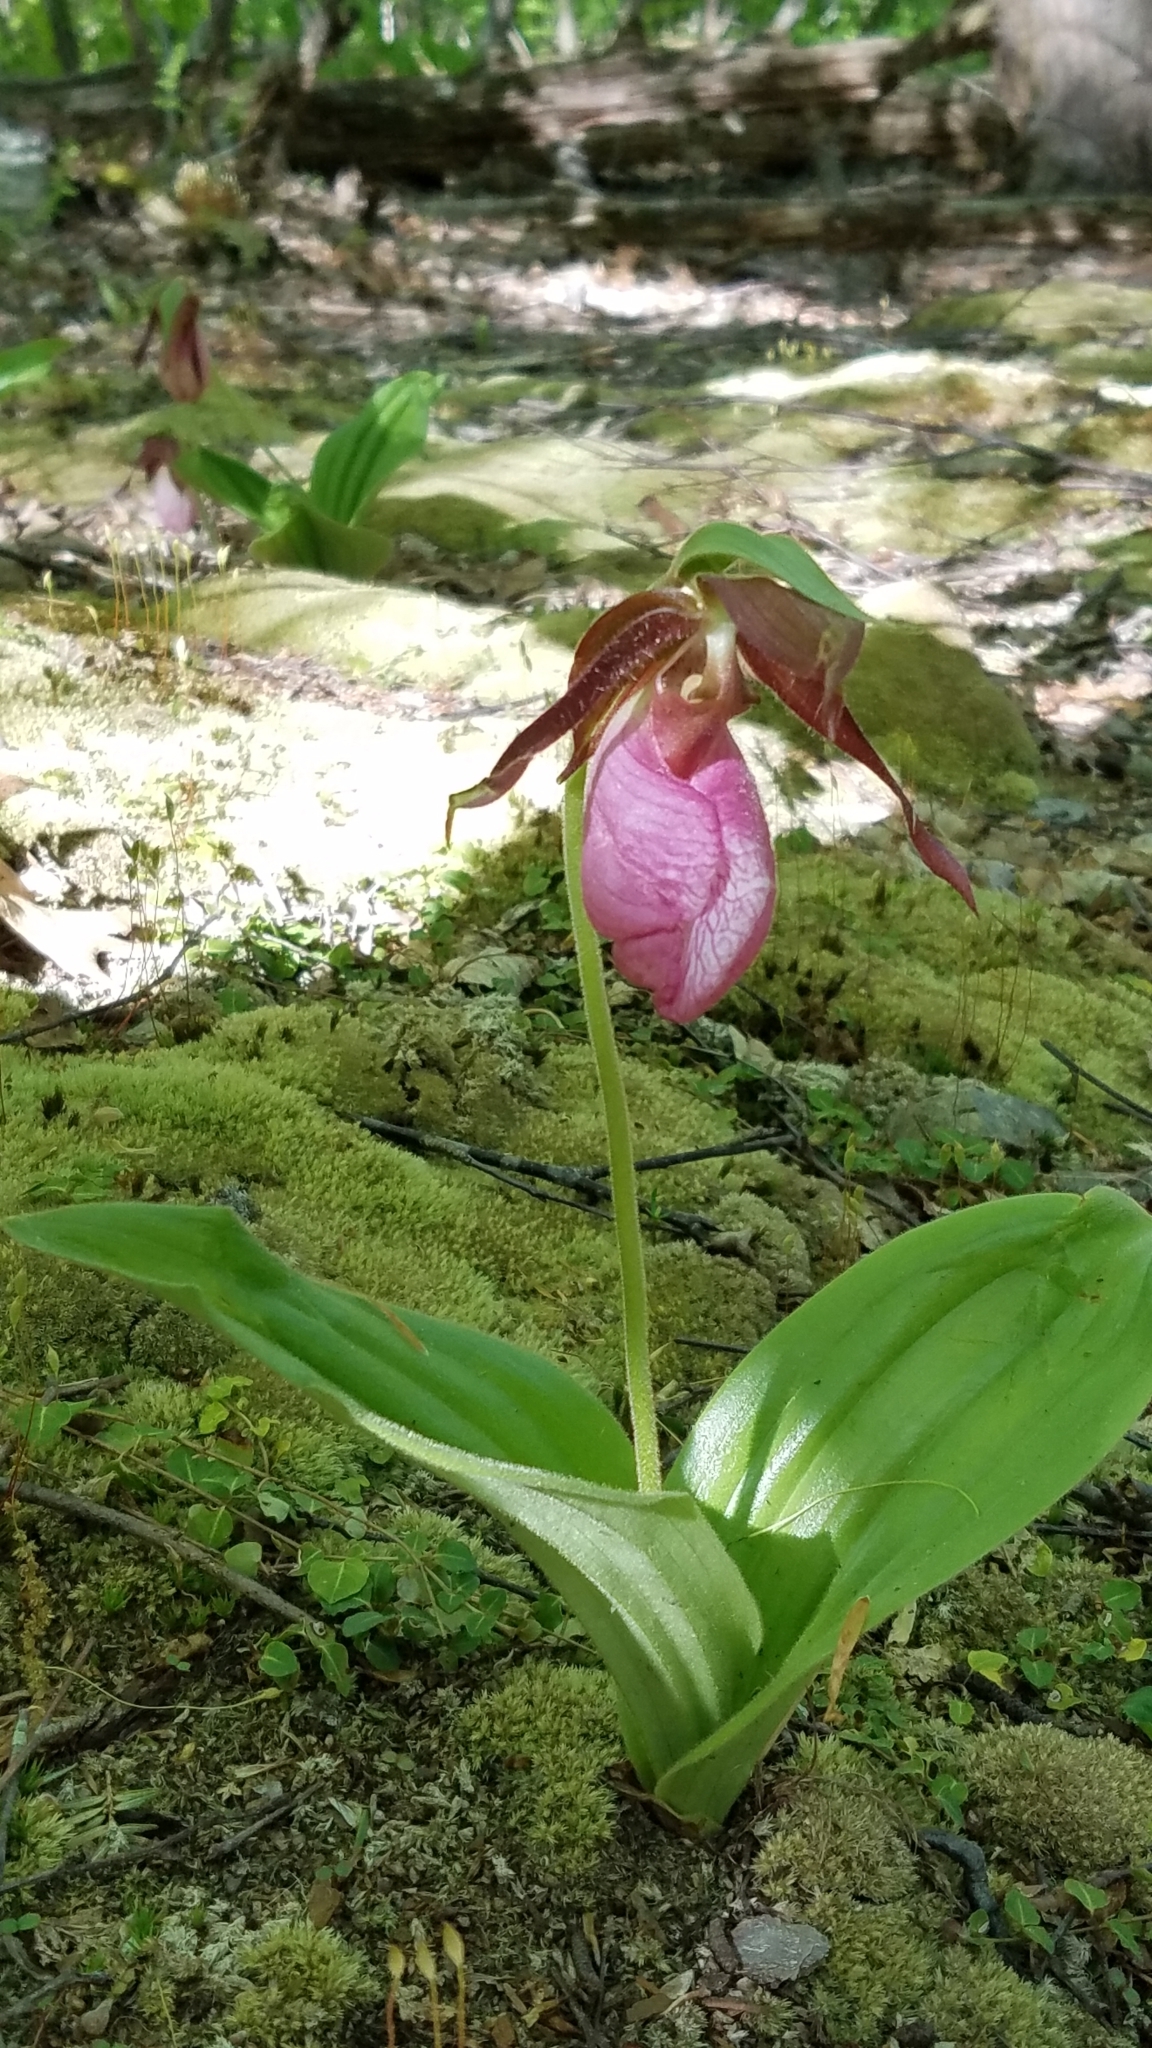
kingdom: Plantae
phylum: Tracheophyta
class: Liliopsida
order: Asparagales
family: Orchidaceae
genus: Cypripedium
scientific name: Cypripedium acaule
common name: Pink lady's-slipper
